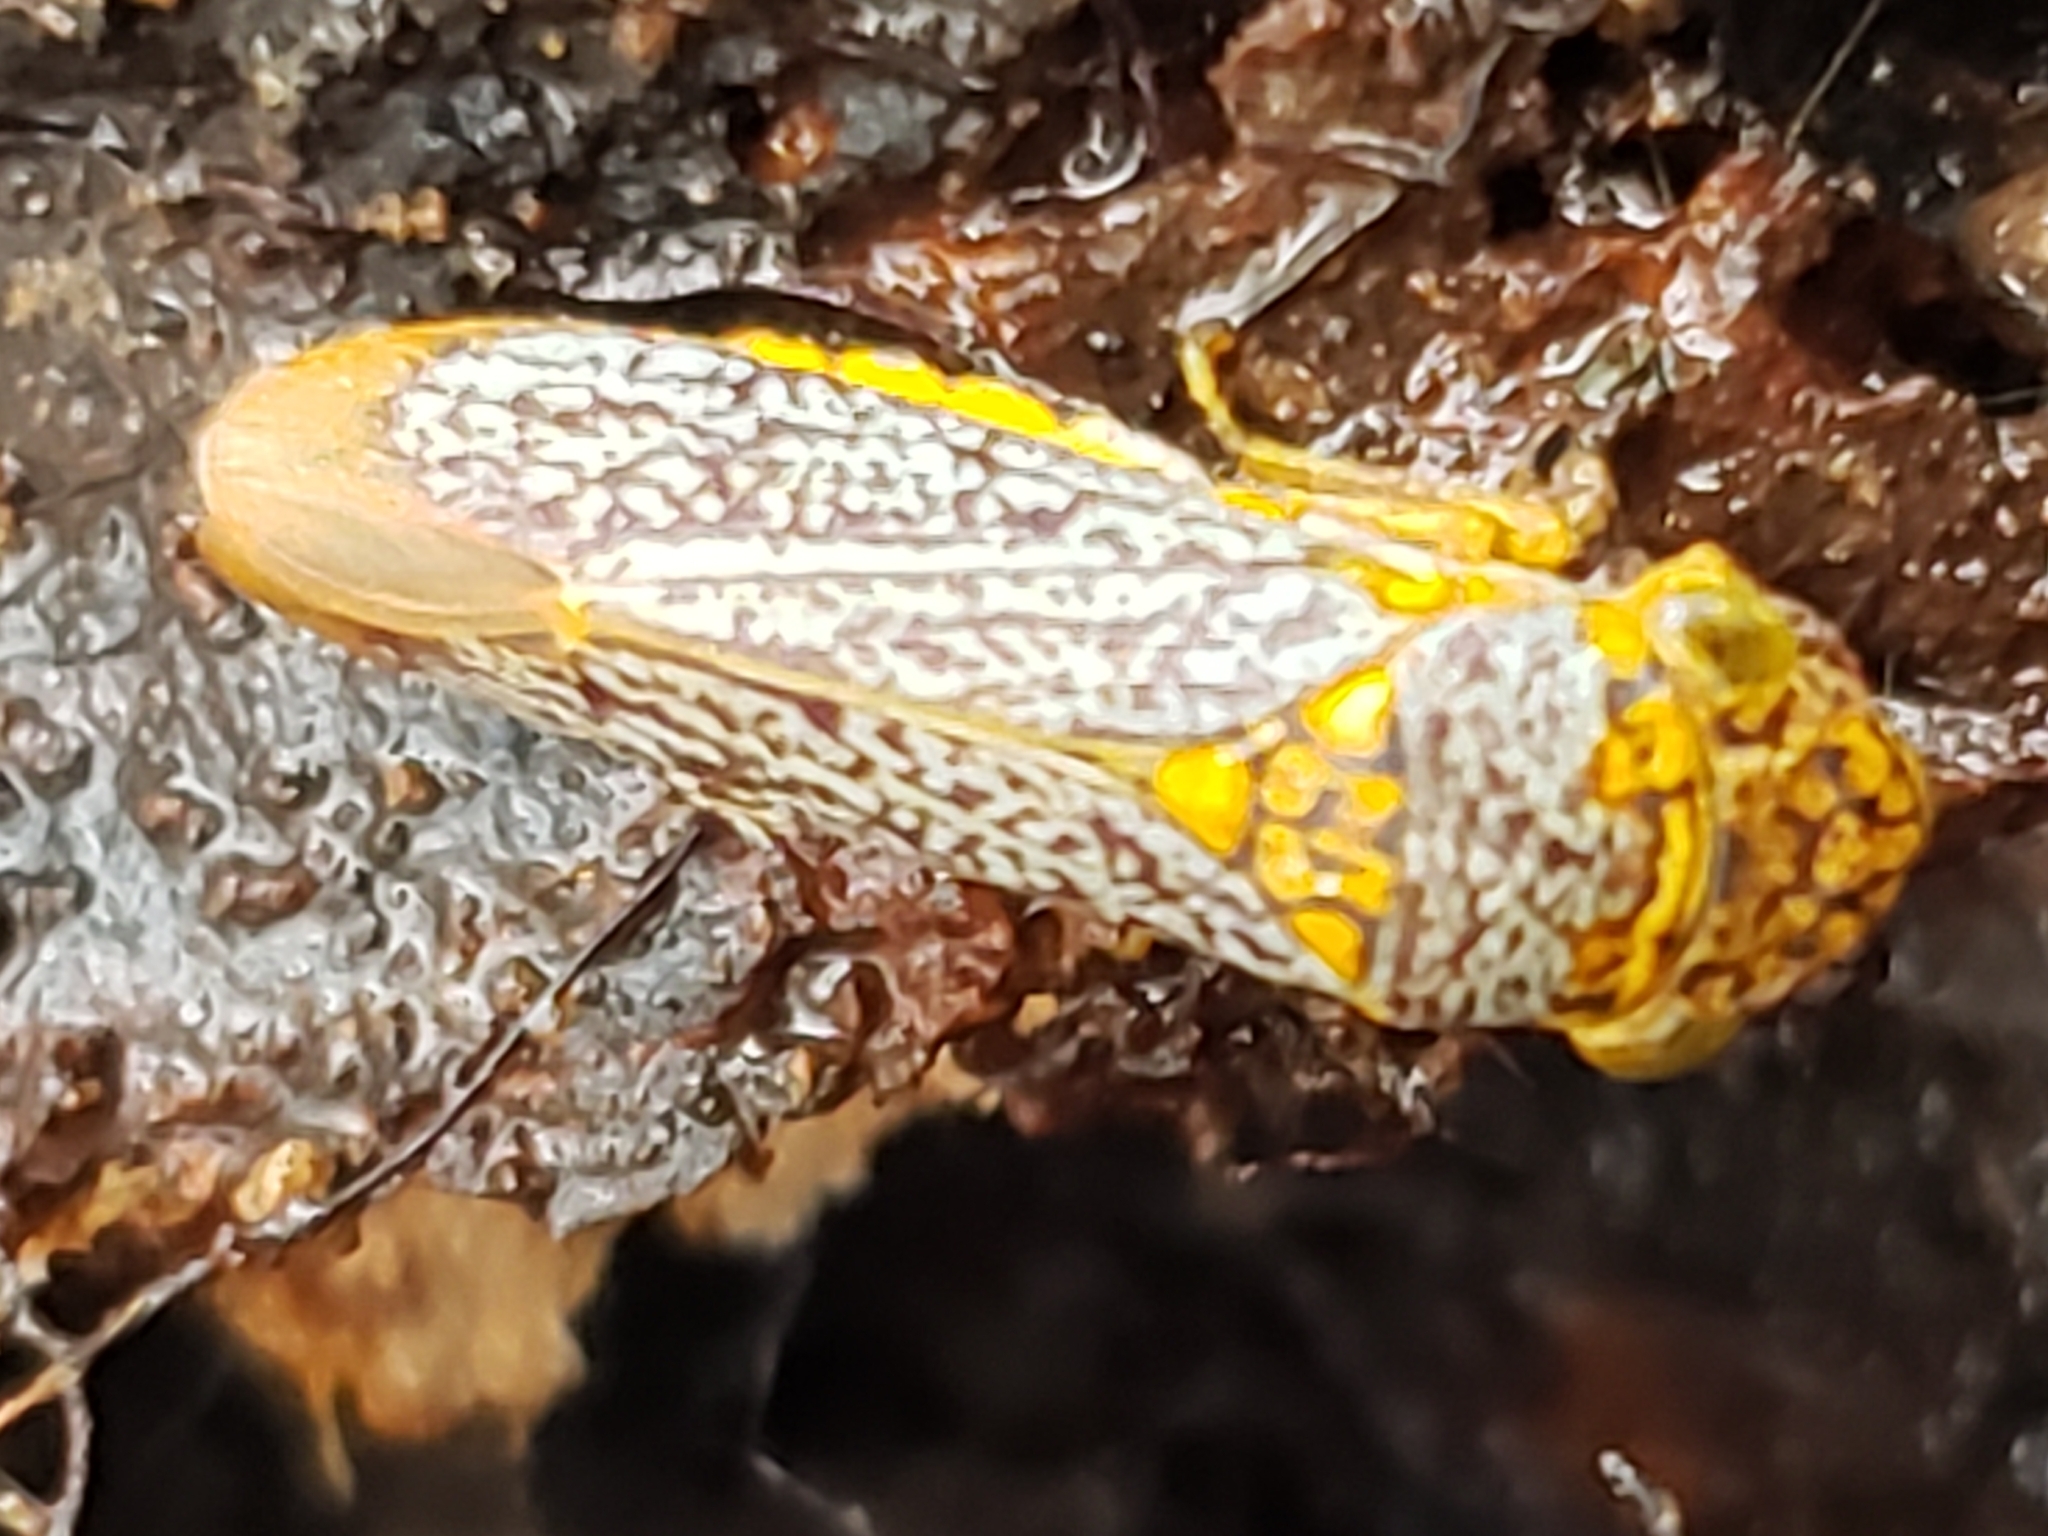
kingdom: Animalia
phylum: Arthropoda
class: Insecta
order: Hemiptera
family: Cicadellidae
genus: Oncometopia
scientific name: Oncometopia orbona
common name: Broad-headed sharpshooter
